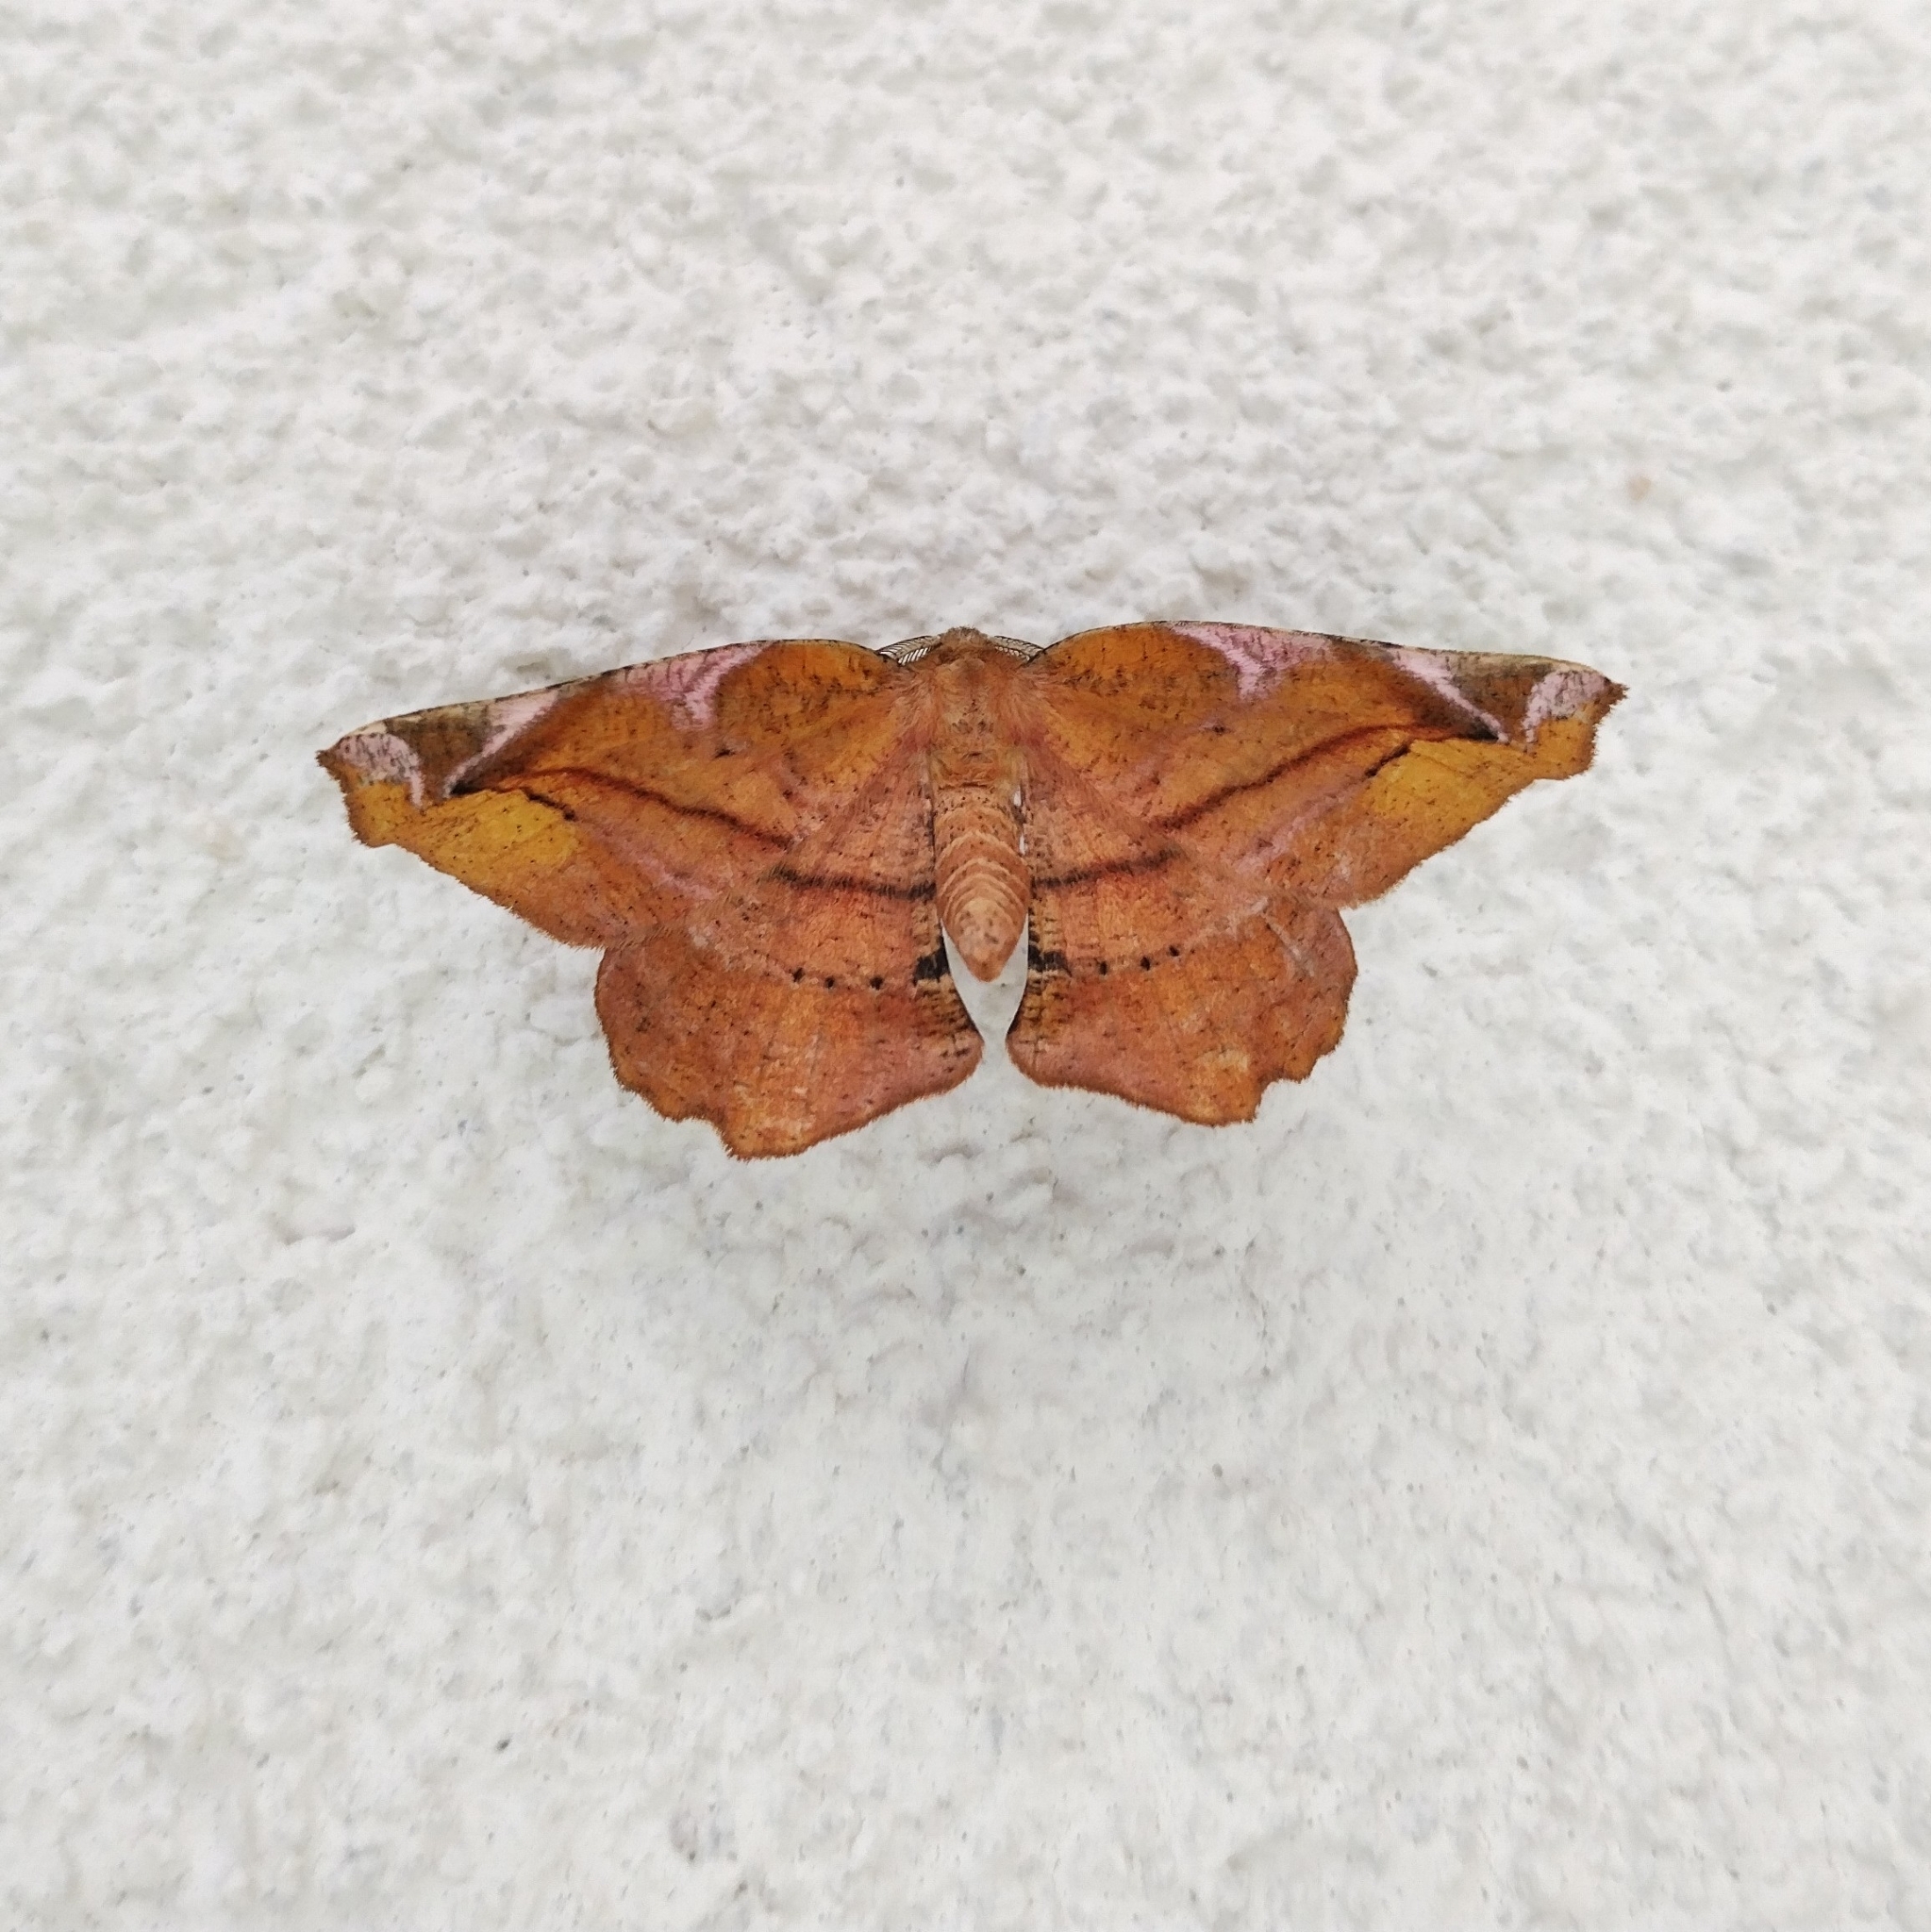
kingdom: Animalia
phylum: Arthropoda
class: Insecta
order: Lepidoptera
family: Geometridae
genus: Apeira
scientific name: Apeira syringaria
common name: Lilac beauty
